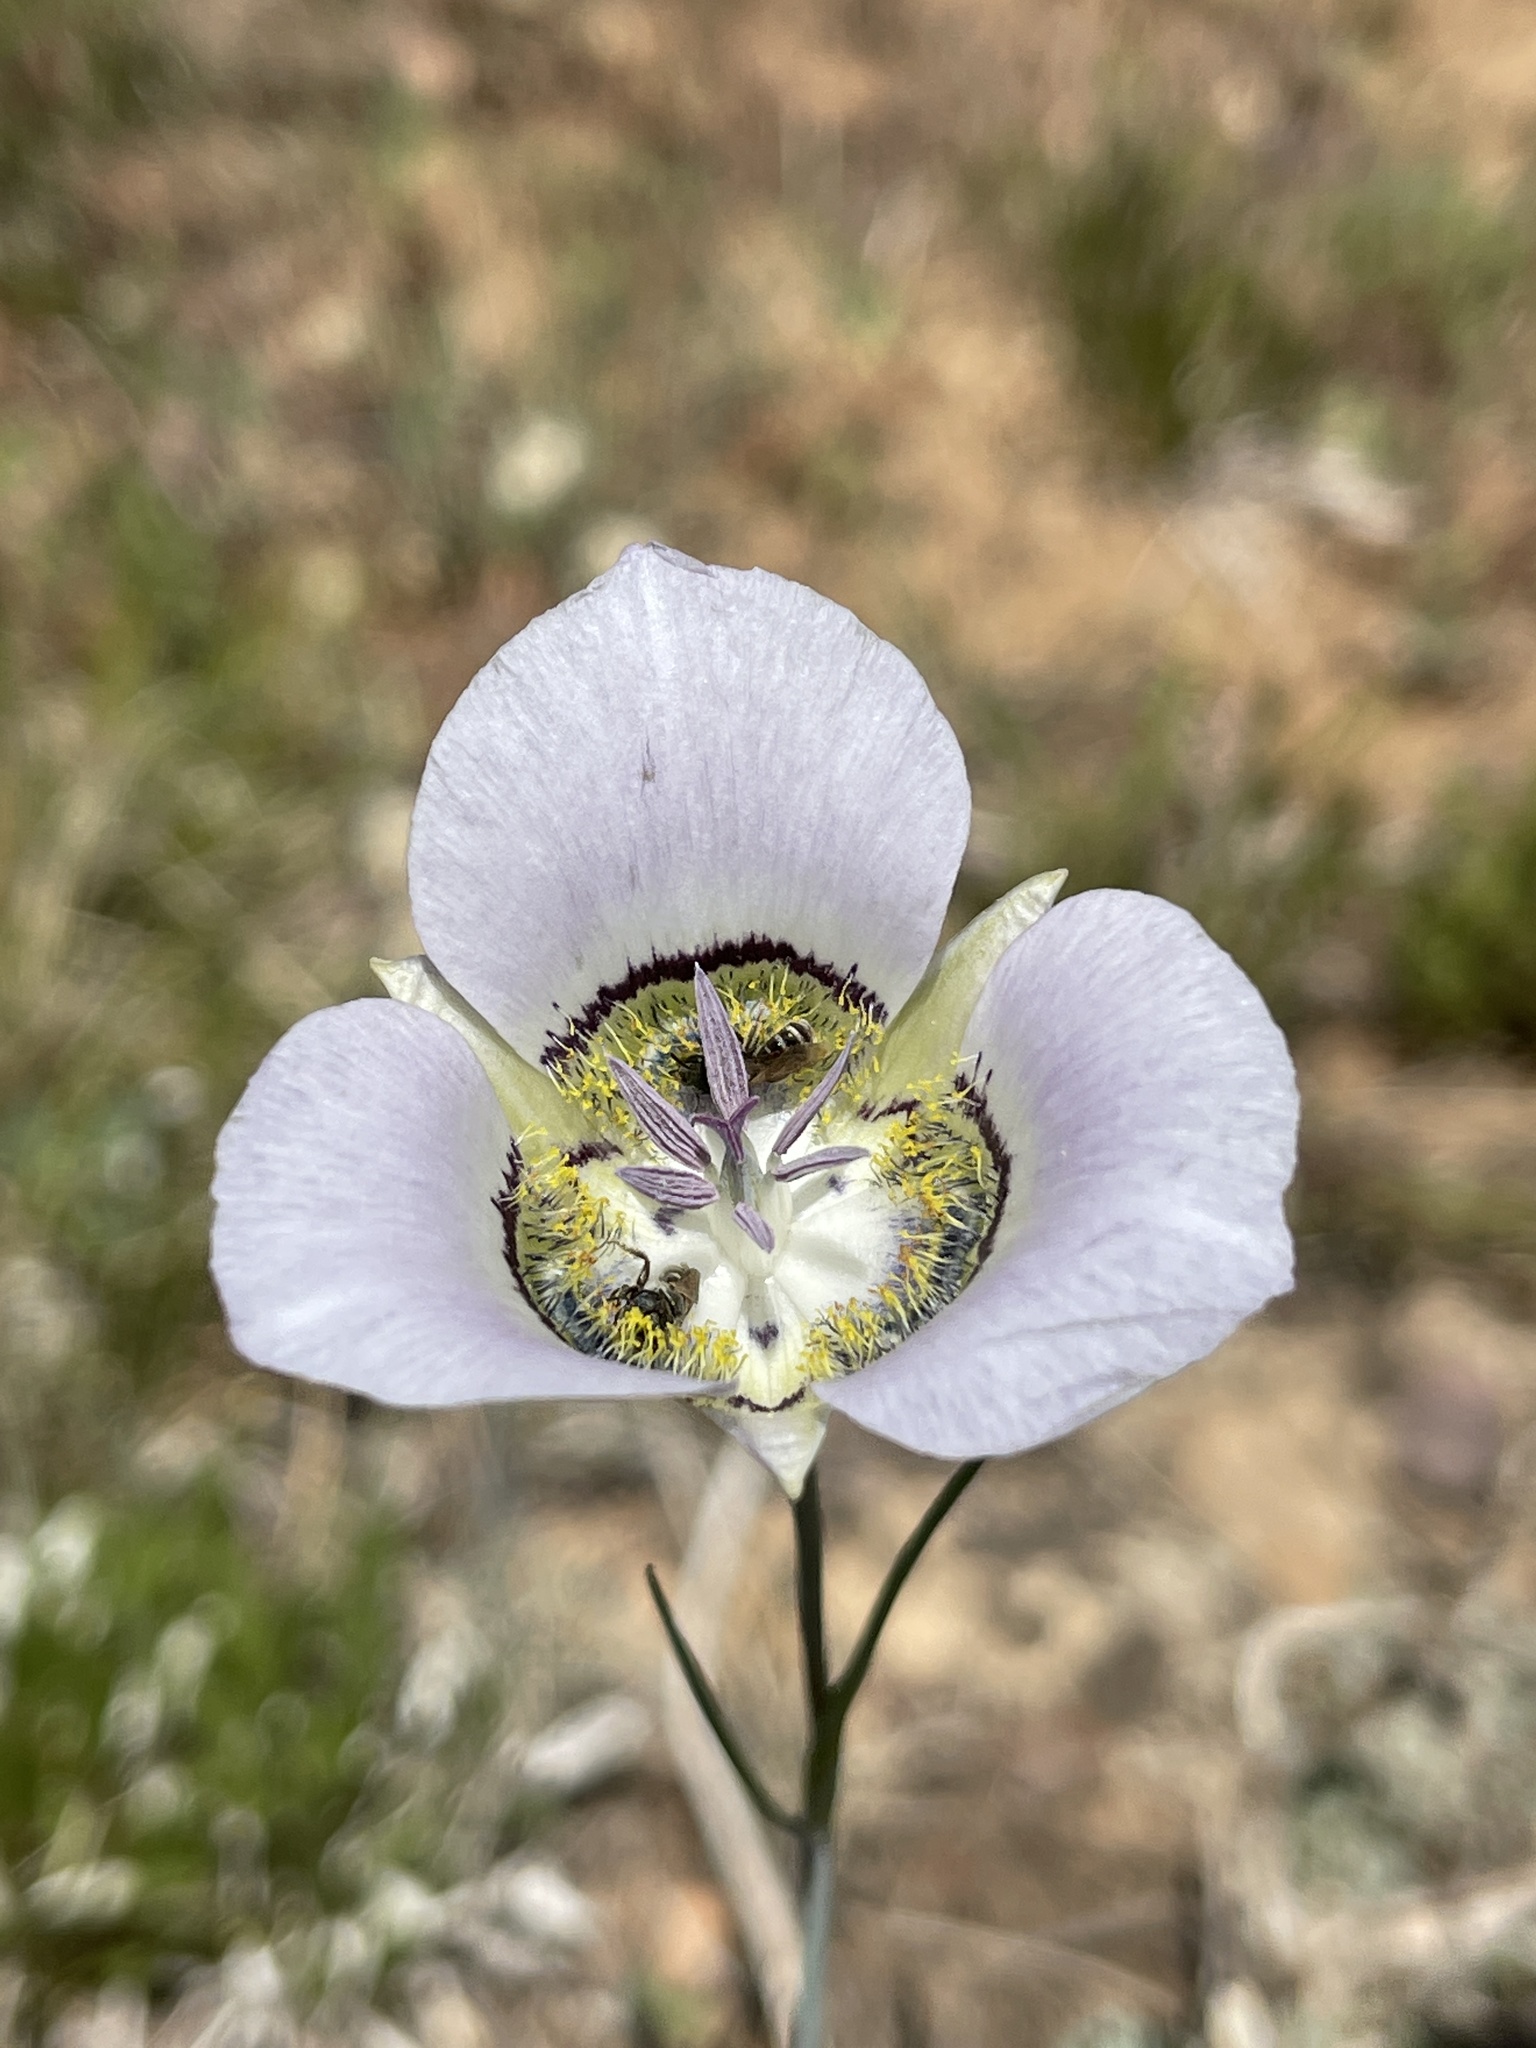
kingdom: Plantae
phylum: Tracheophyta
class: Liliopsida
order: Liliales
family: Liliaceae
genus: Calochortus
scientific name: Calochortus gunnisonii
